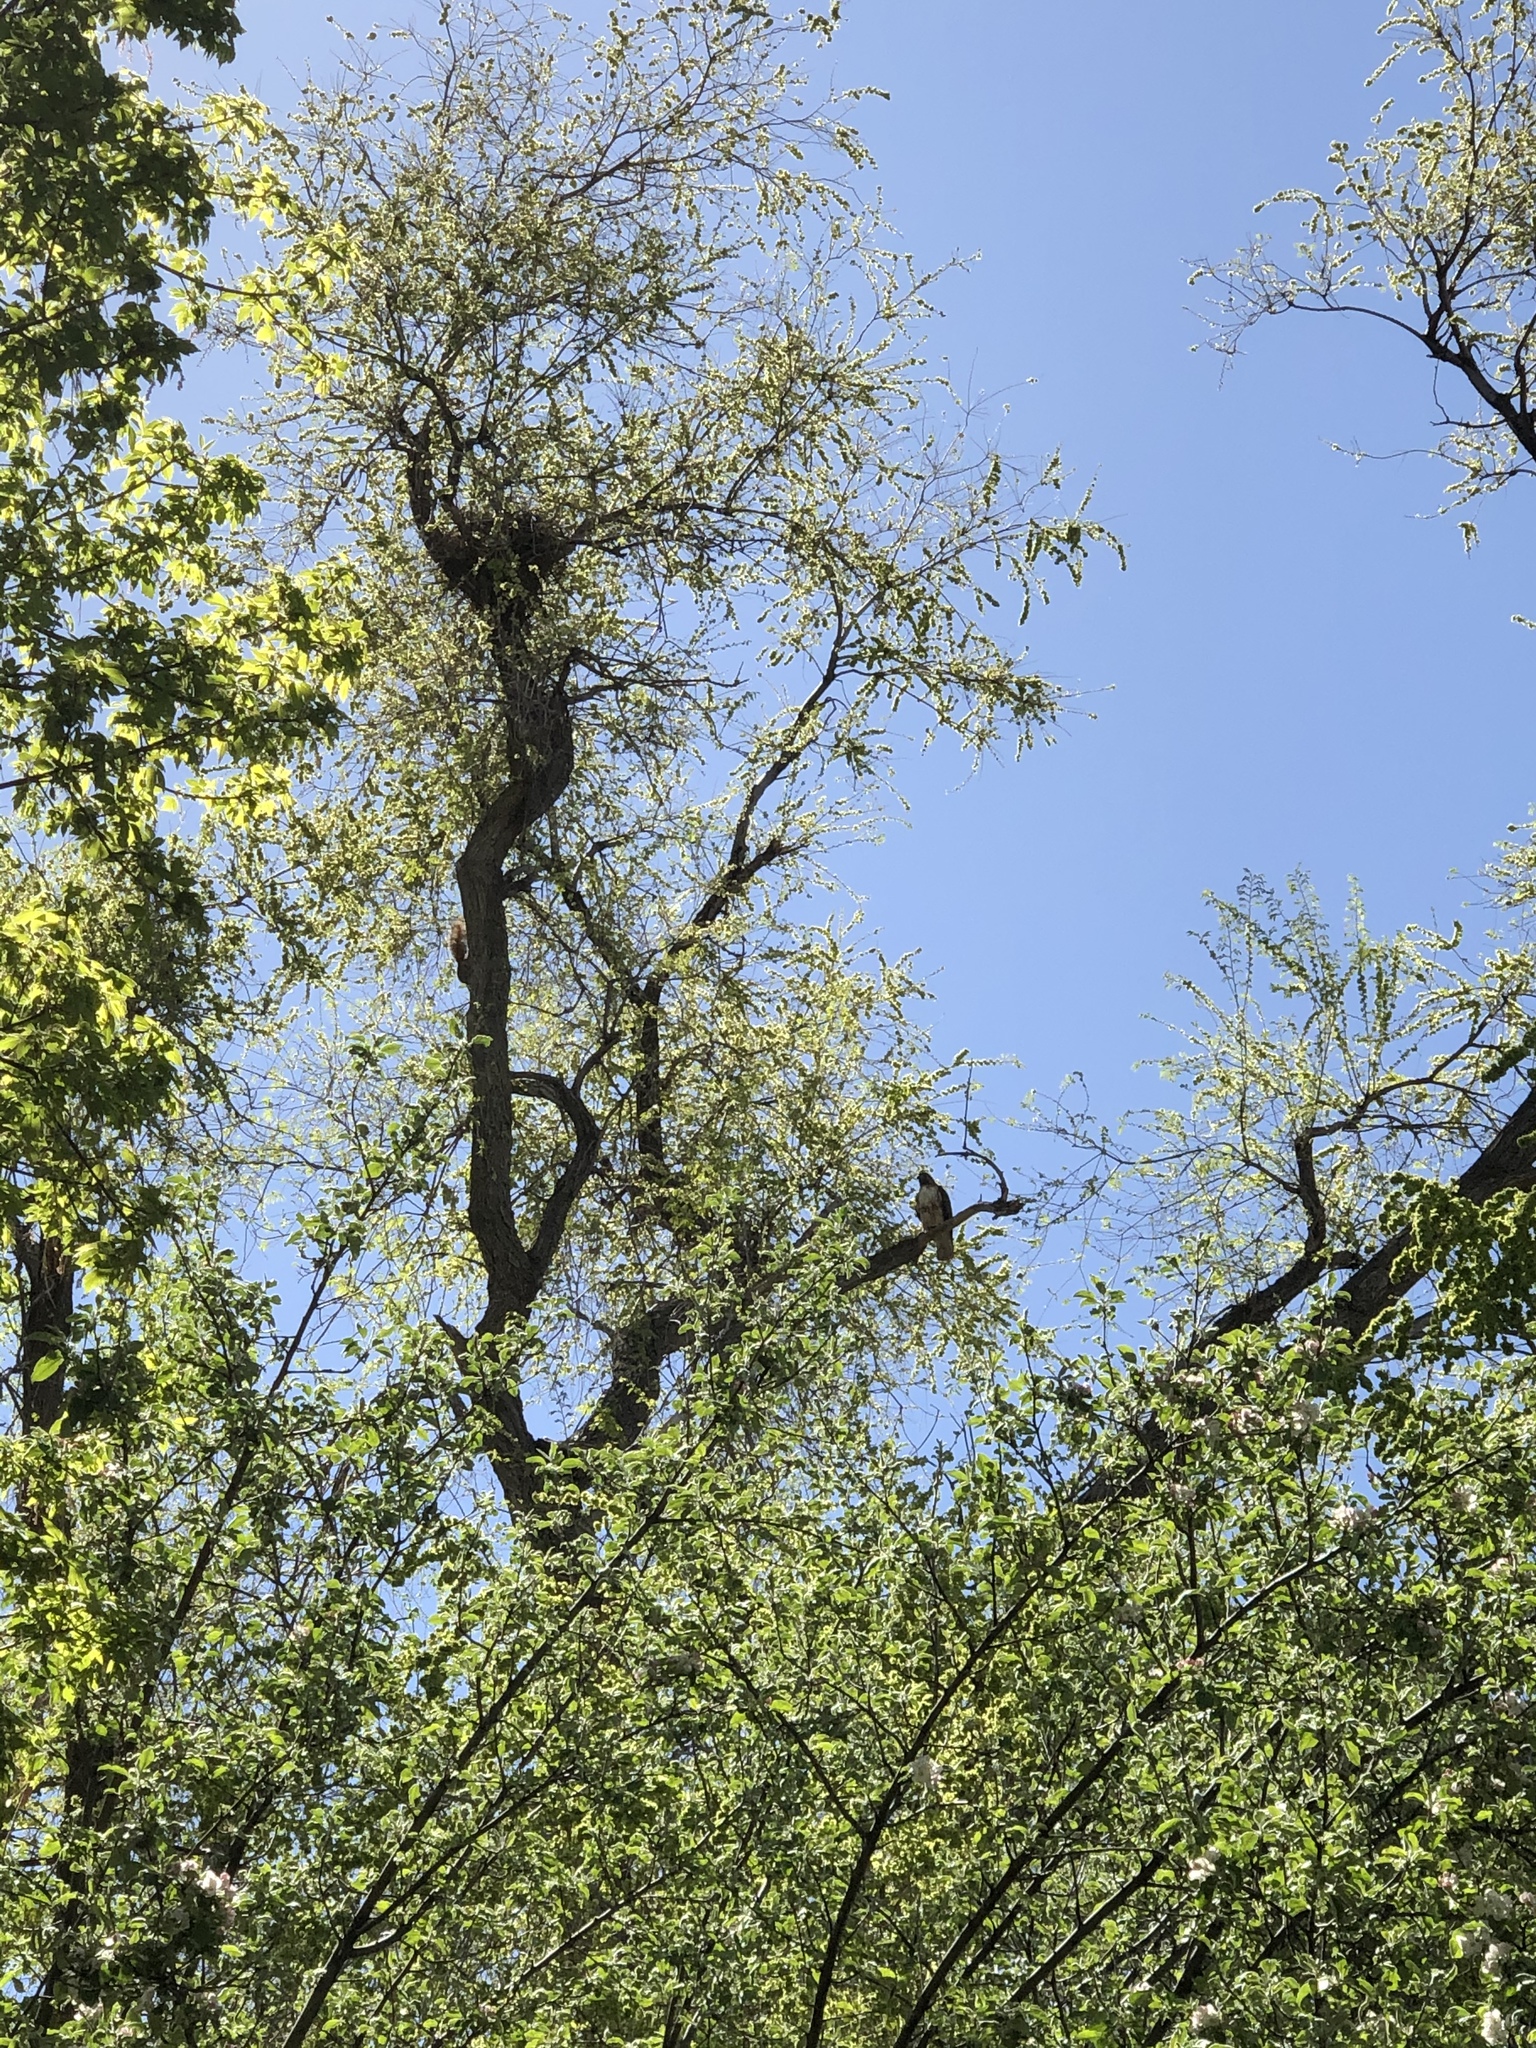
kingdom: Animalia
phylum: Chordata
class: Aves
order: Accipitriformes
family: Accipitridae
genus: Buteo
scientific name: Buteo jamaicensis
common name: Red-tailed hawk
